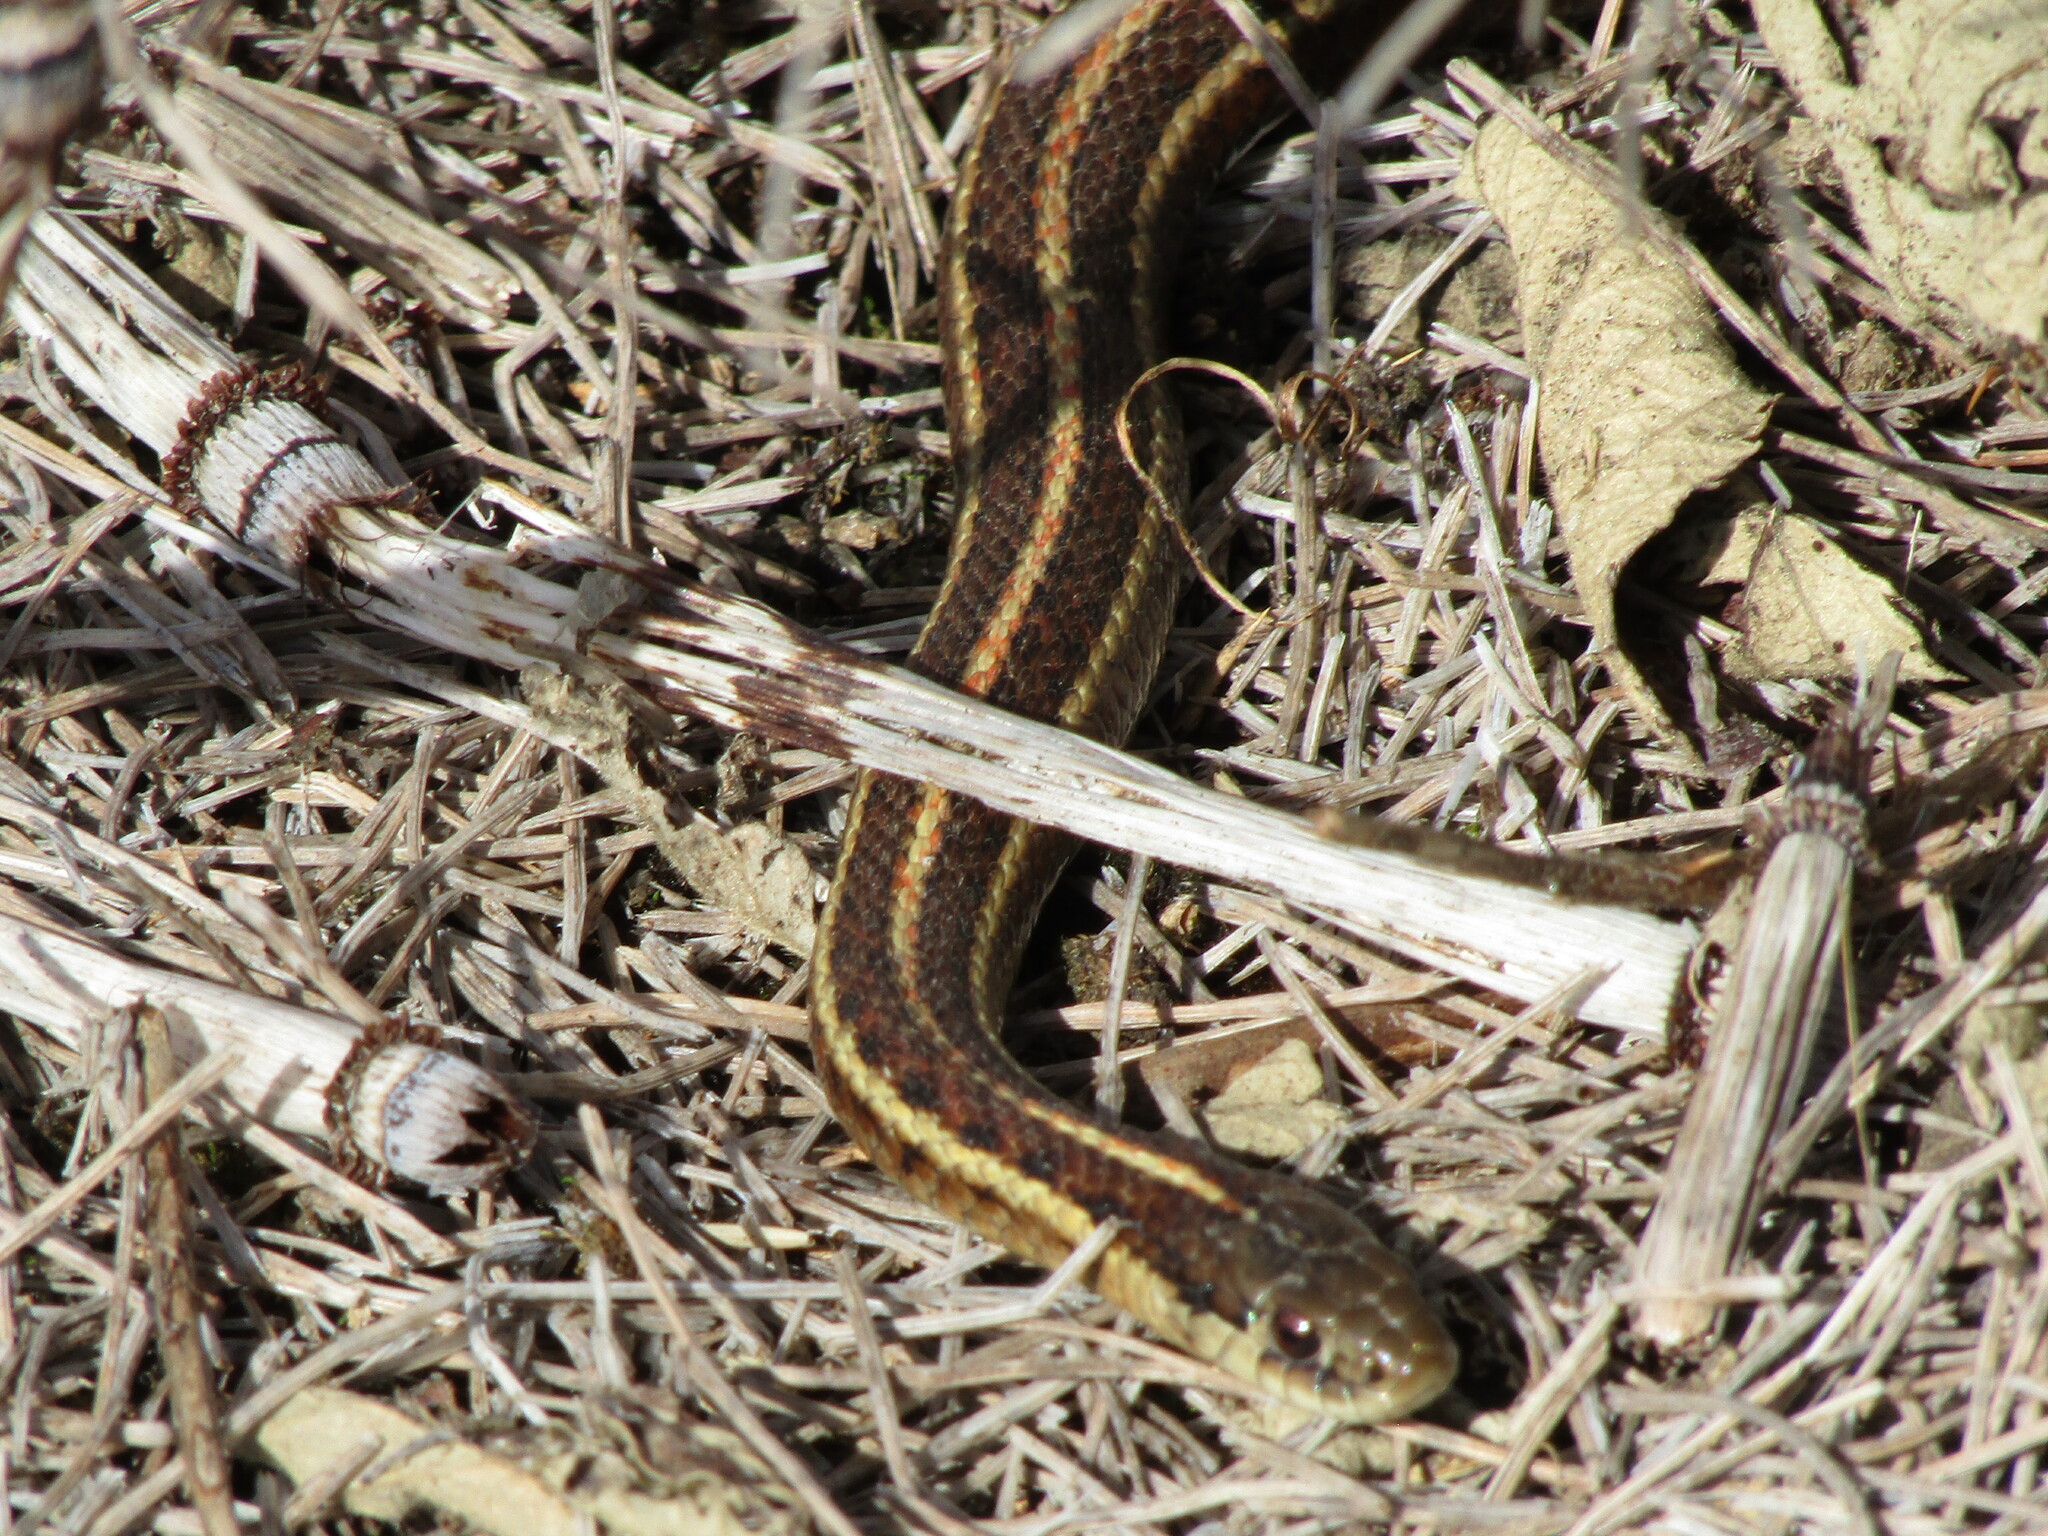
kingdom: Animalia
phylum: Chordata
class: Squamata
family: Colubridae
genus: Thamnophis
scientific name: Thamnophis ordinoides
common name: Northwestern garter snake
